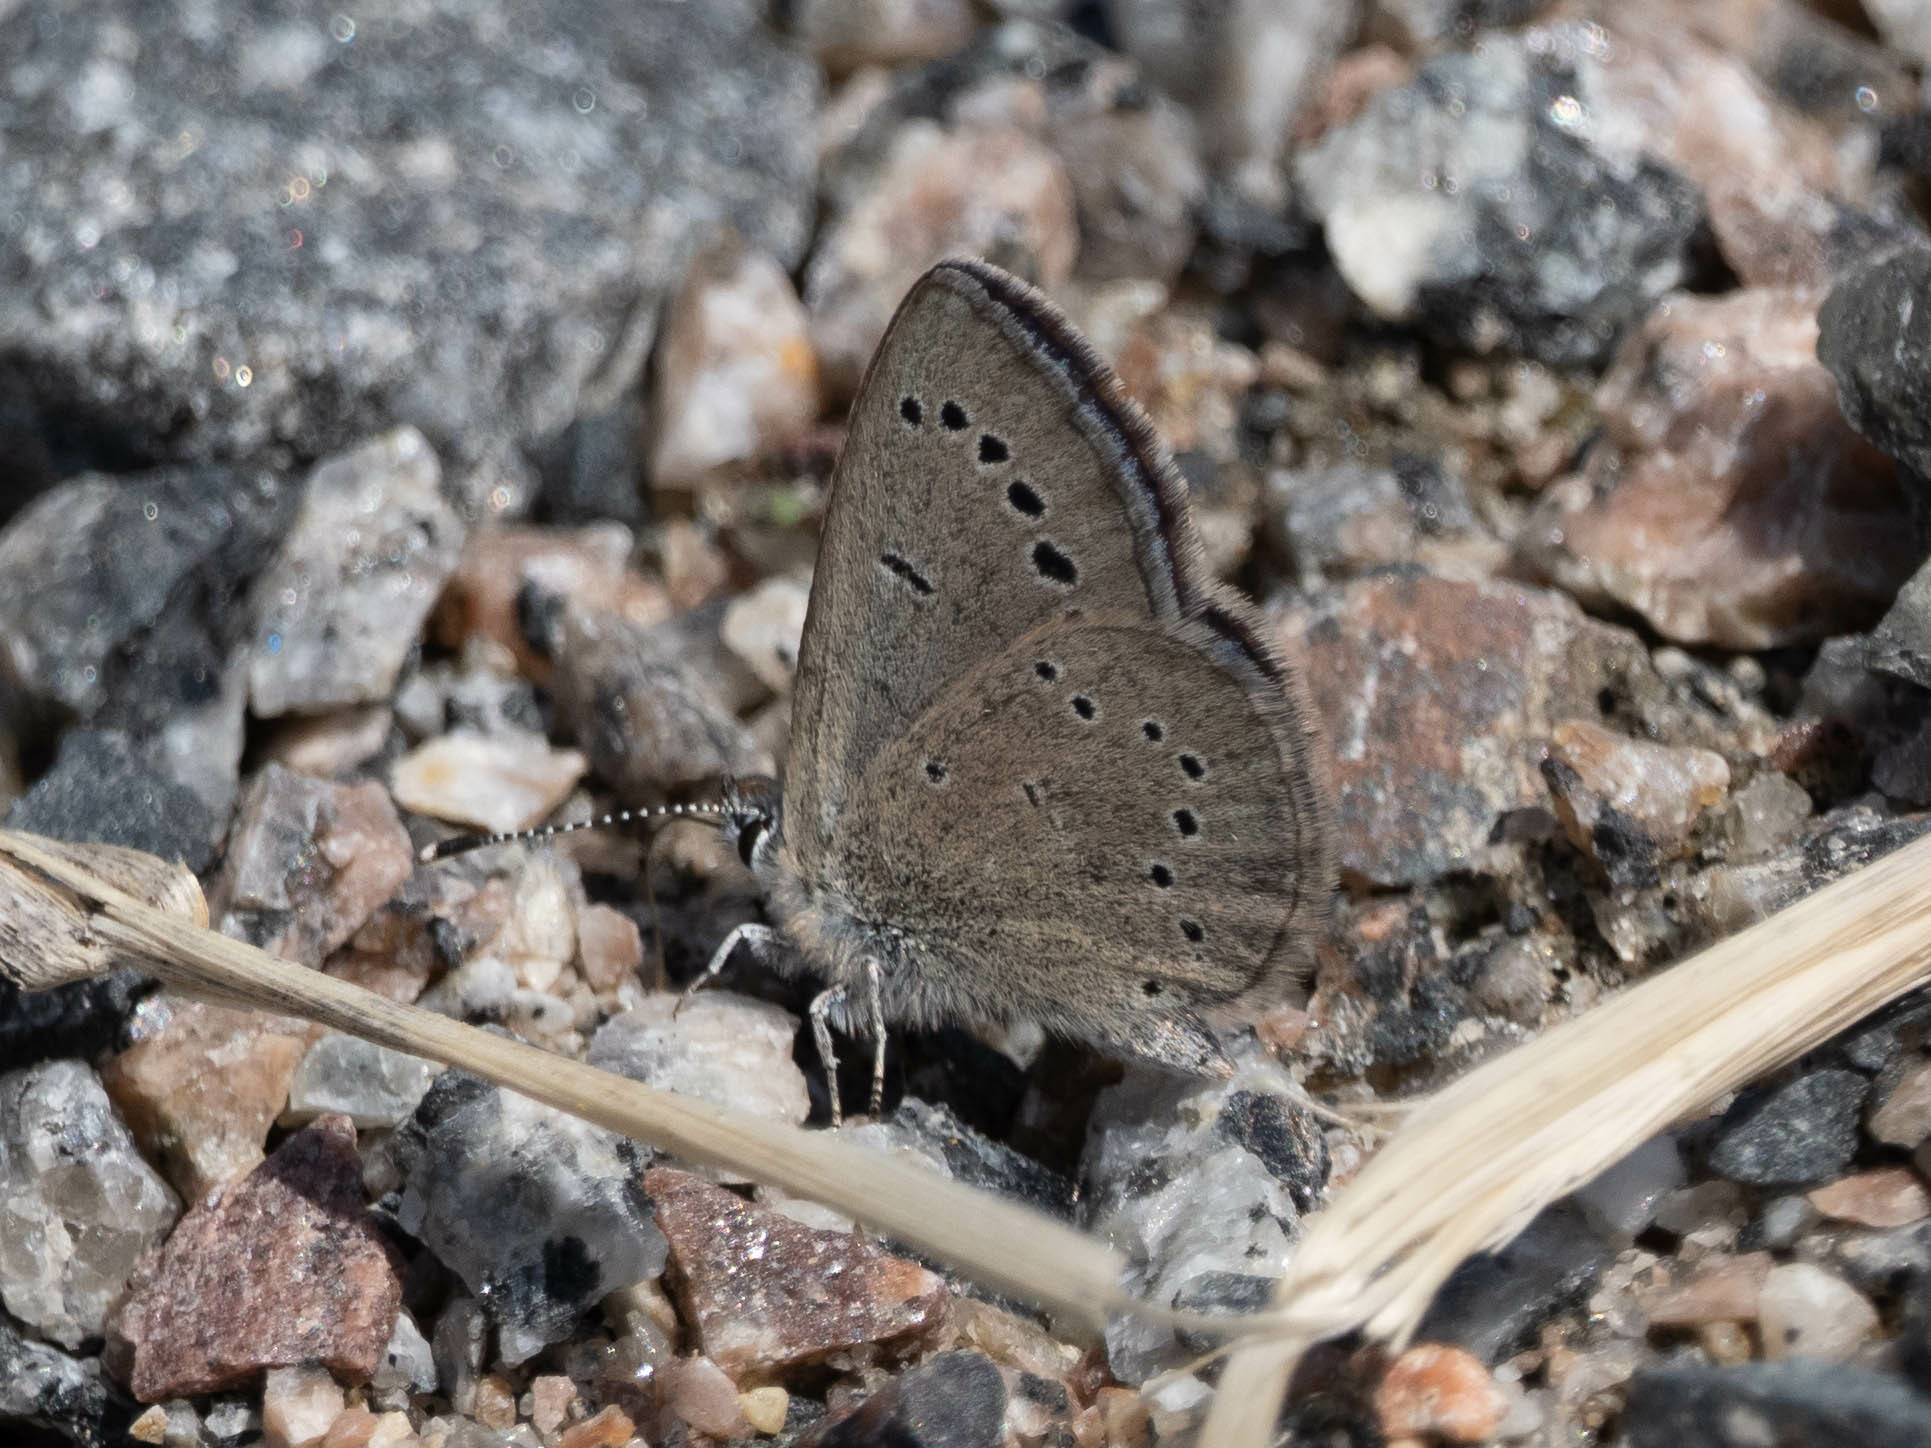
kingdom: Animalia
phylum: Arthropoda
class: Insecta
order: Lepidoptera
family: Lycaenidae
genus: Glaucopsyche
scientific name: Glaucopsyche lygdamus
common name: Silvery blue
